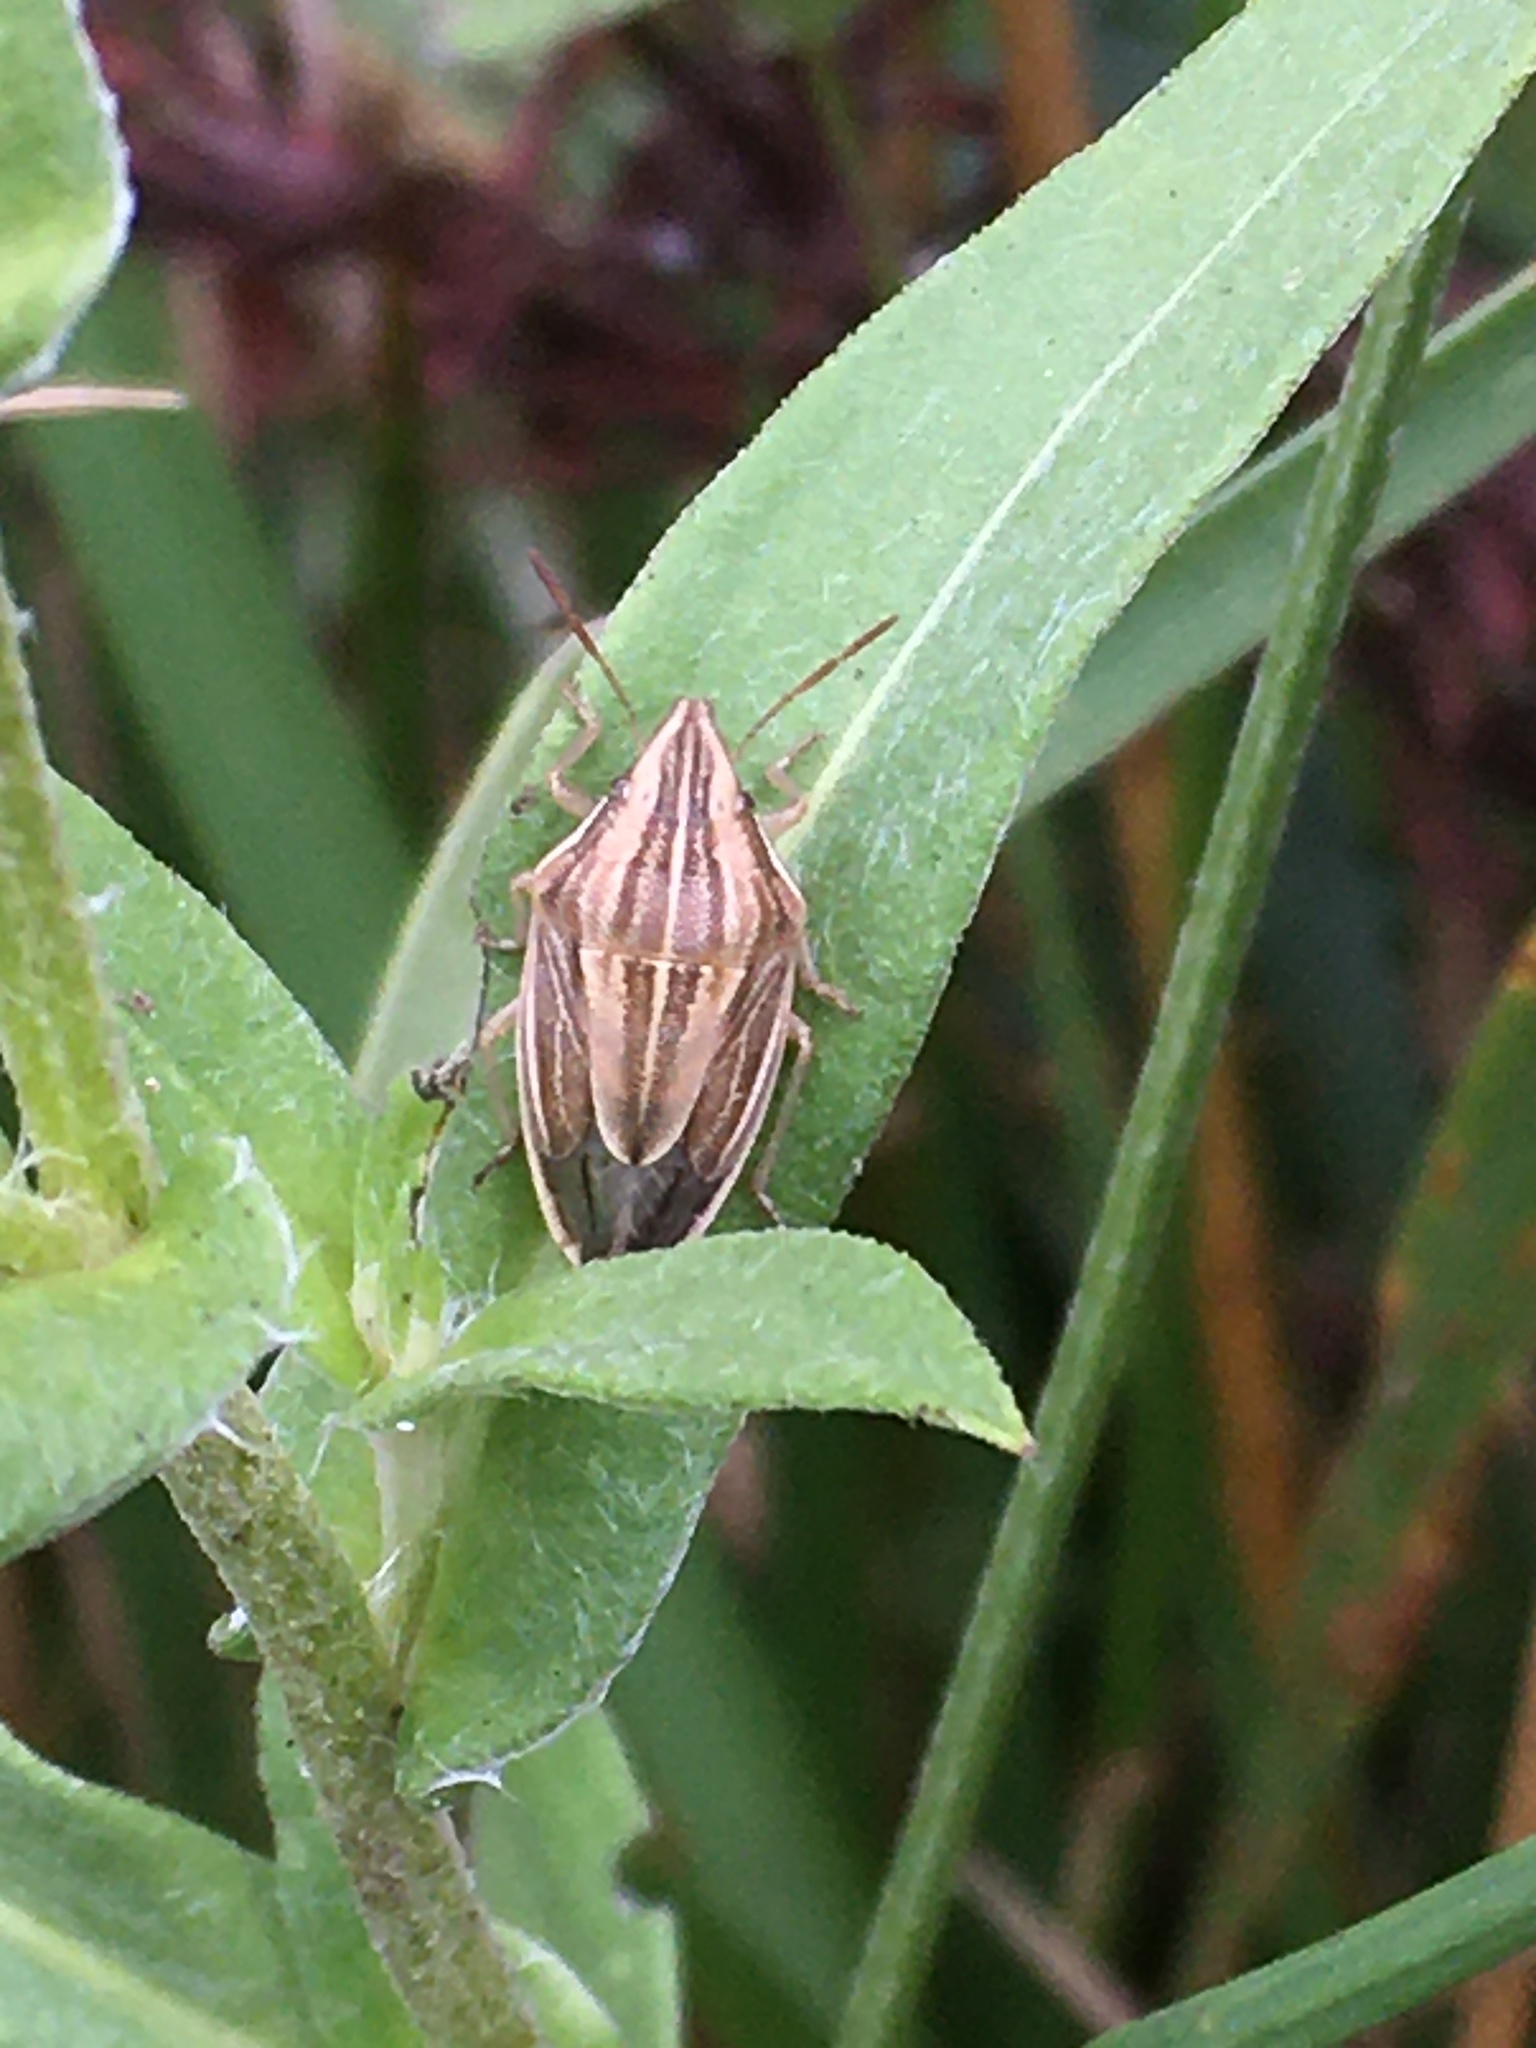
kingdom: Animalia
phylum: Arthropoda
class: Insecta
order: Hemiptera
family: Pentatomidae
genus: Aelia
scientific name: Aelia acuminata
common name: Bishop's mitre
